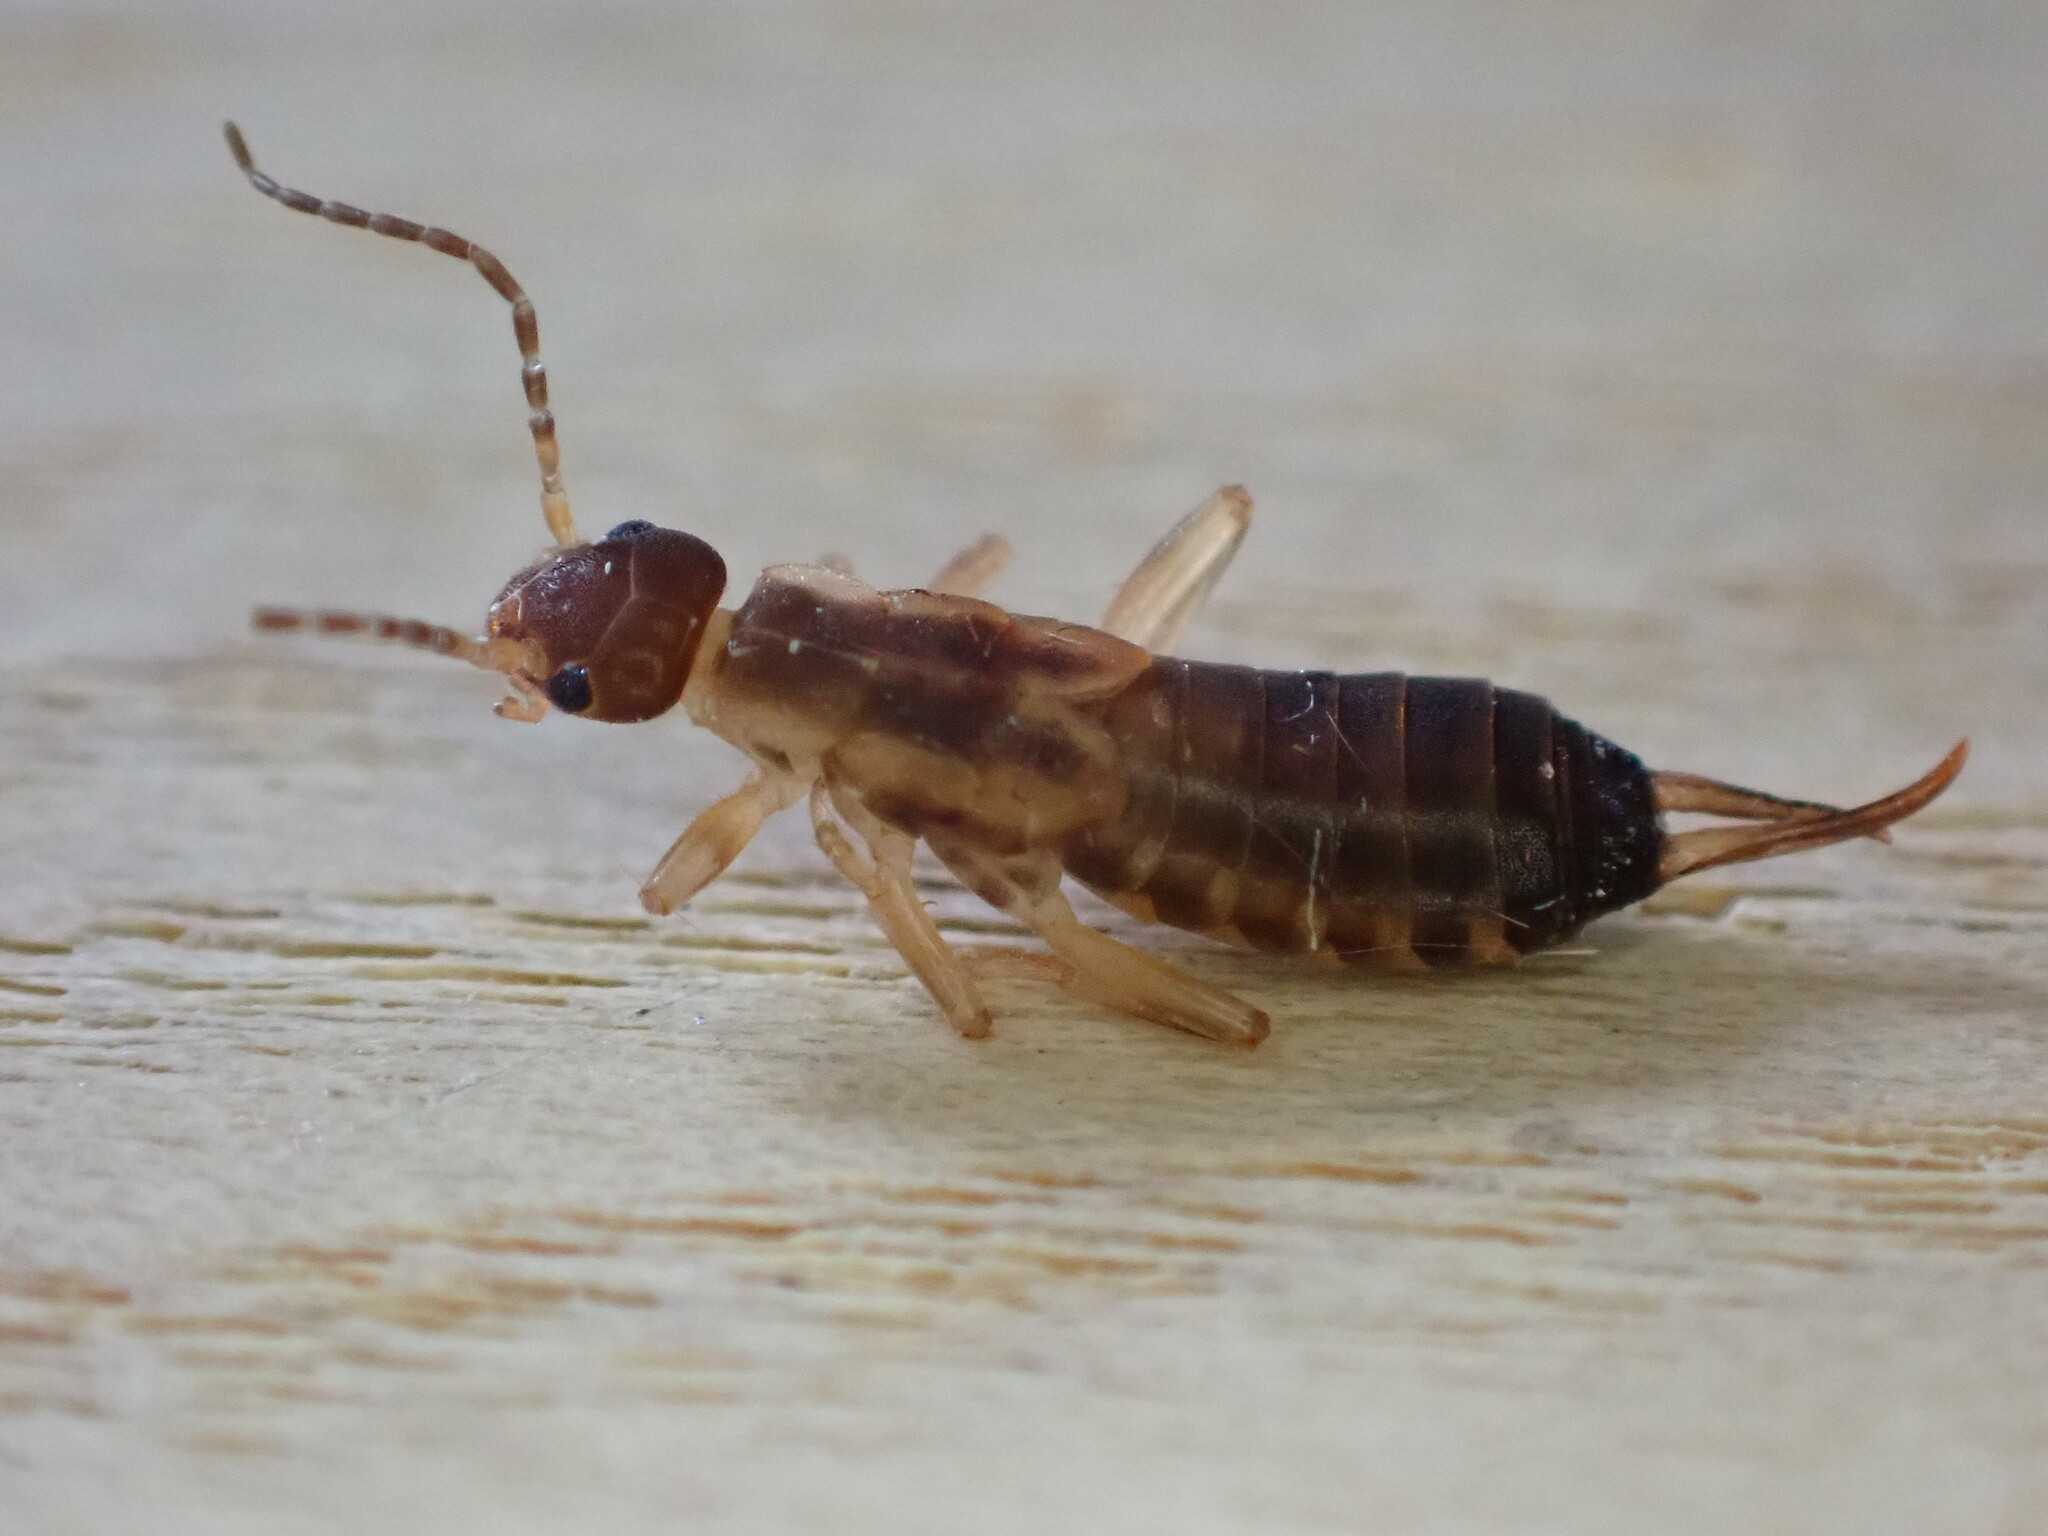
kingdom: Animalia
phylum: Arthropoda
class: Insecta
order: Dermaptera
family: Forficulidae
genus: Forficula
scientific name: Forficula
